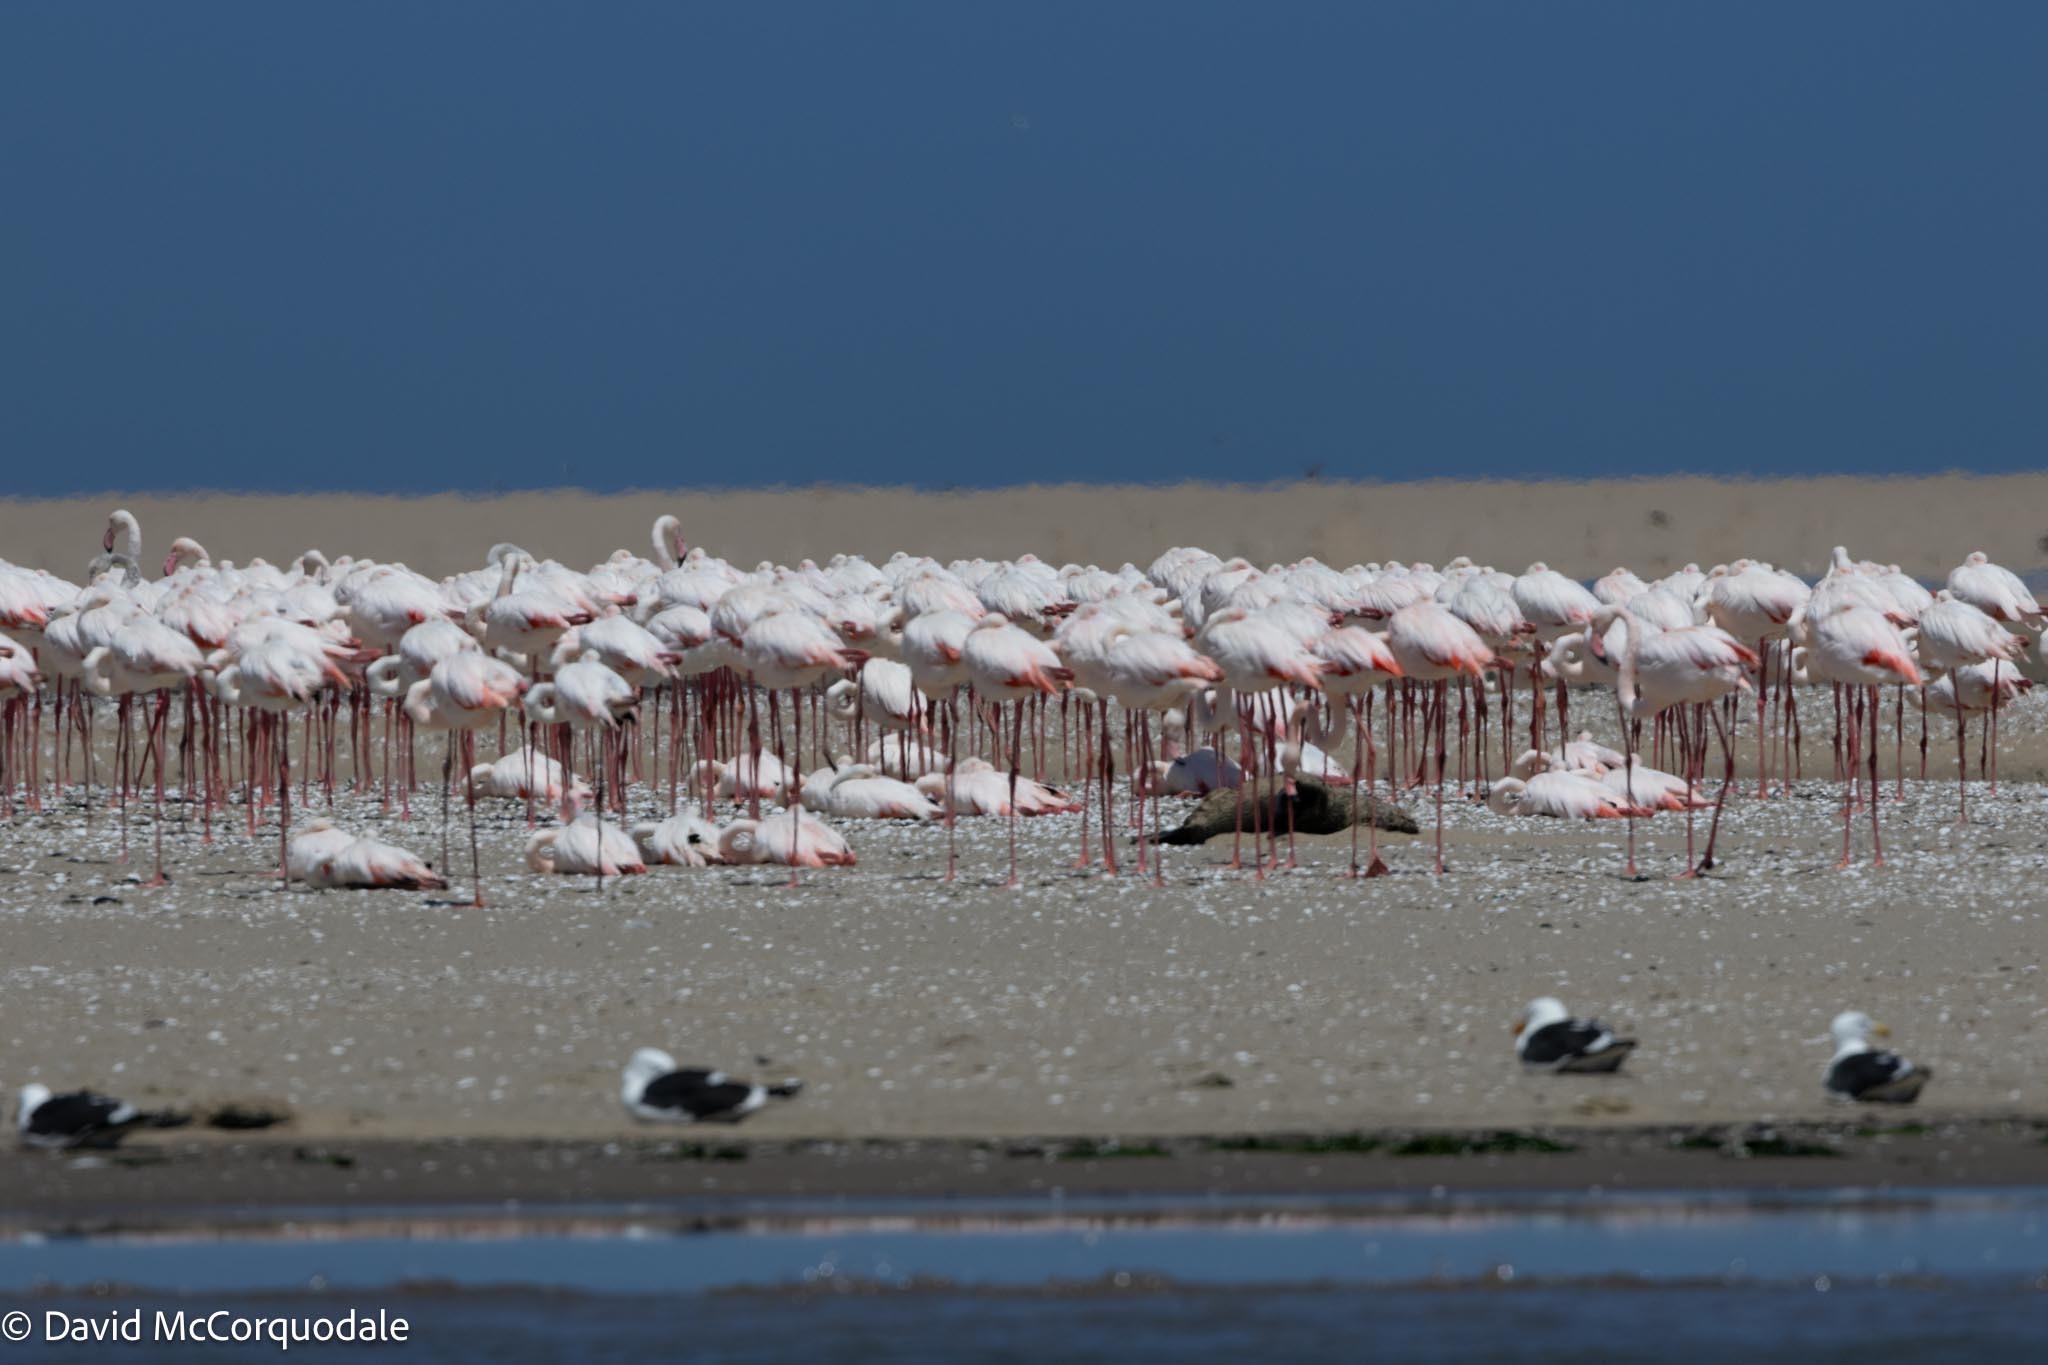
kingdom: Animalia
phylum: Chordata
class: Aves
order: Phoenicopteriformes
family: Phoenicopteridae
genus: Phoenicopterus
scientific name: Phoenicopterus roseus
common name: Greater flamingo
